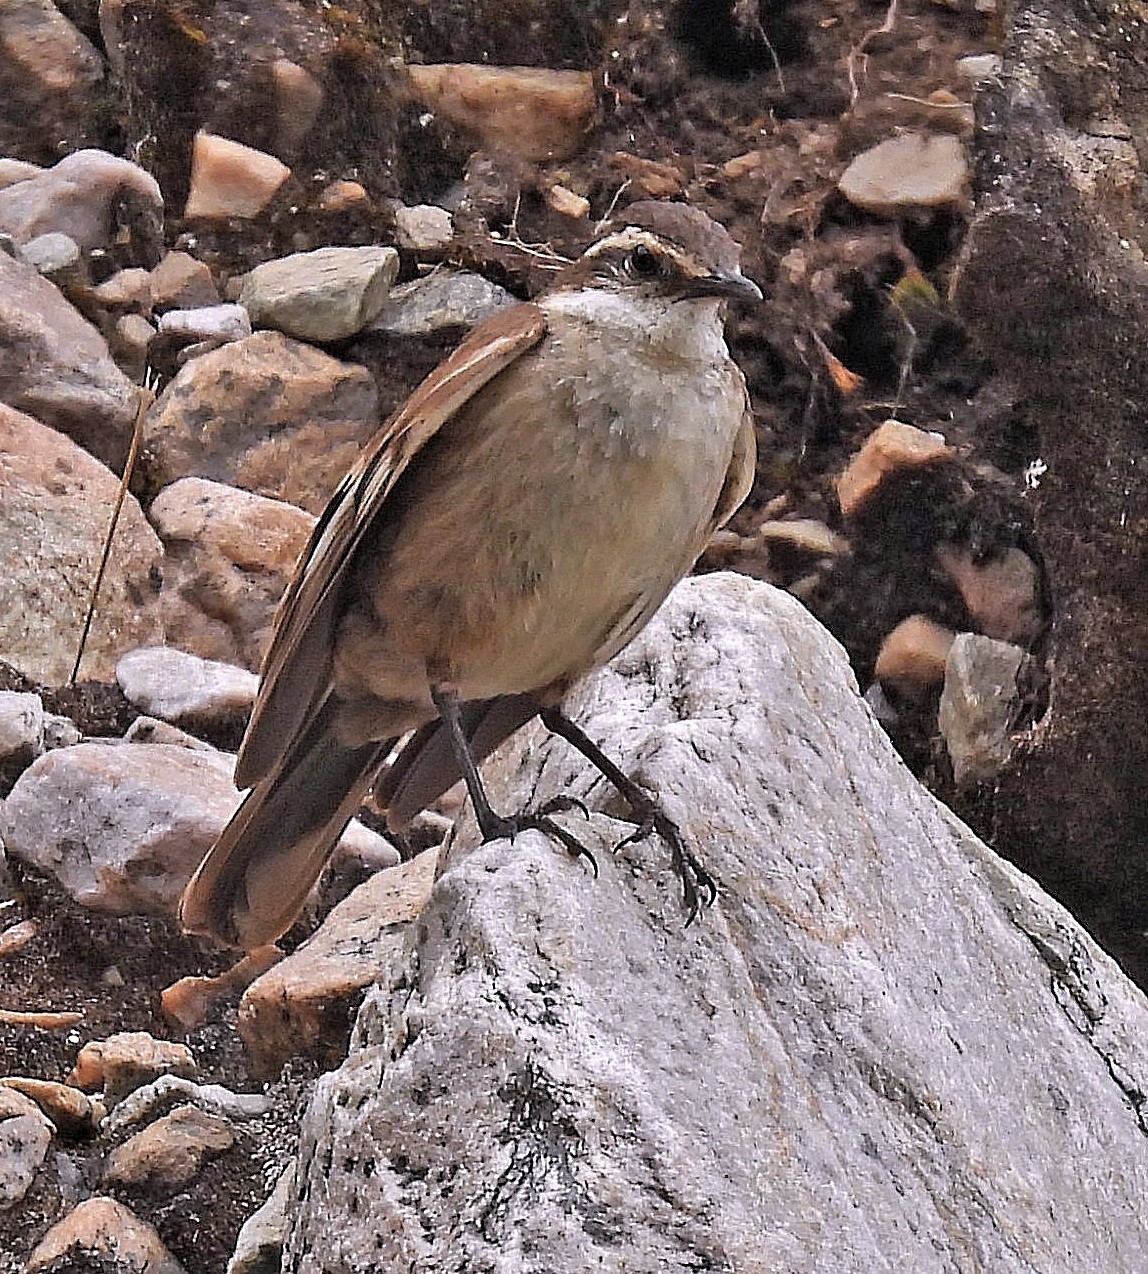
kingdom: Animalia
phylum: Chordata
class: Aves
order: Passeriformes
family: Furnariidae
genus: Cinclodes
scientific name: Cinclodes fuscus
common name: Buff-winged cinclodes
